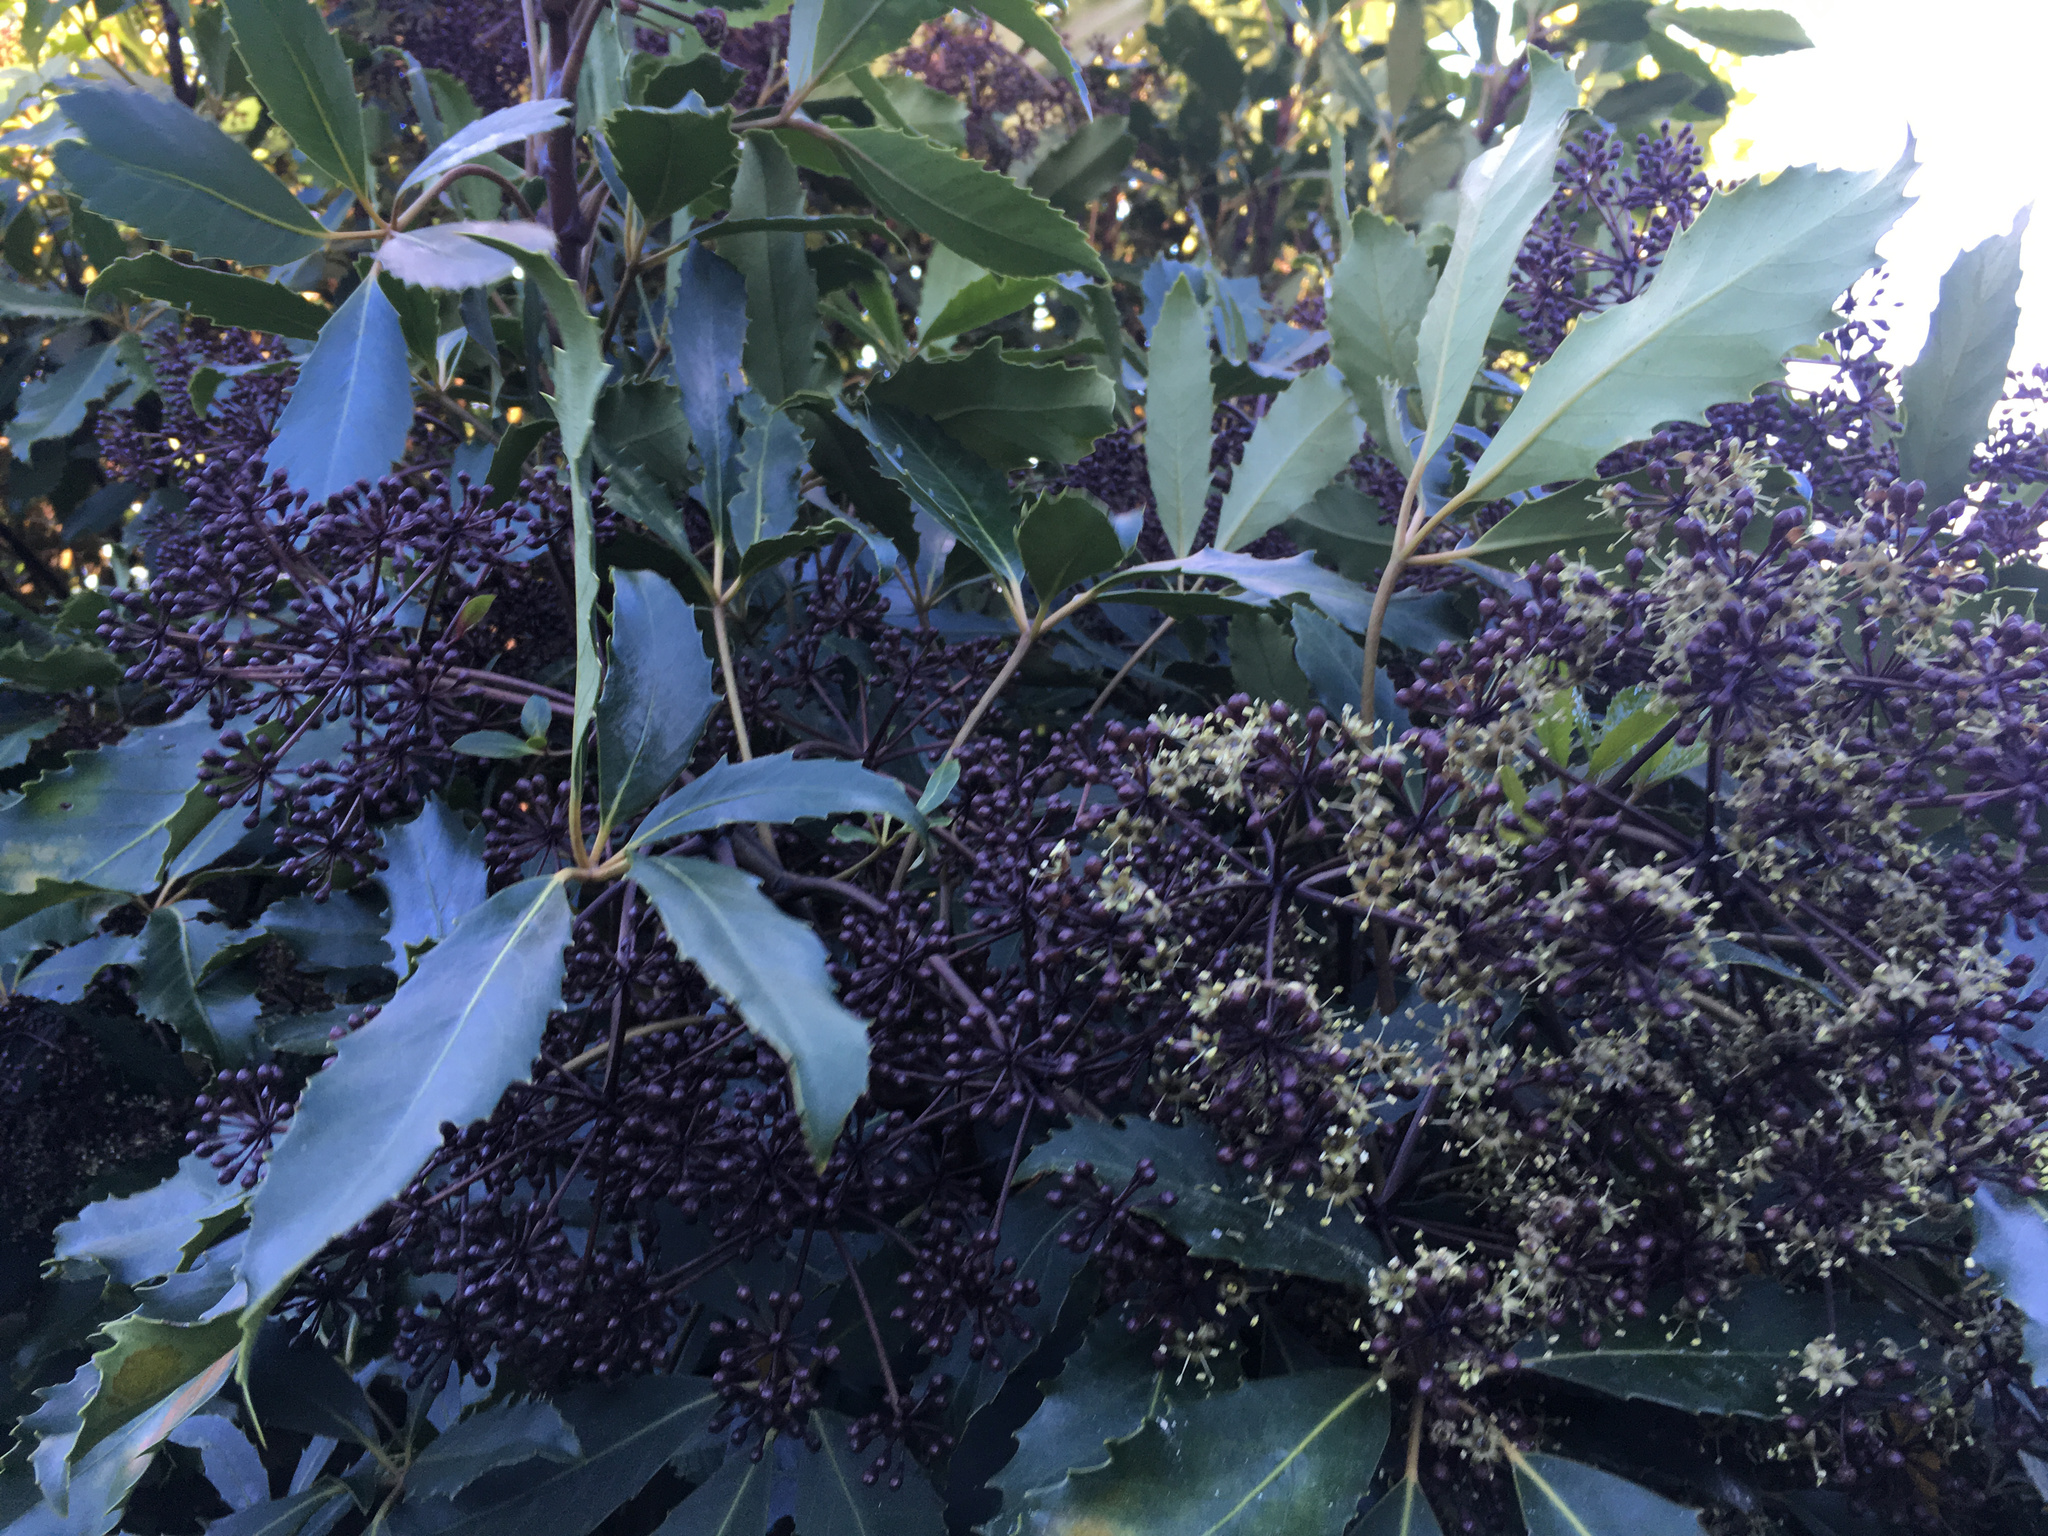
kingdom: Plantae
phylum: Tracheophyta
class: Magnoliopsida
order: Apiales
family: Araliaceae
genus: Neopanax
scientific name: Neopanax arboreus
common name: Five-fingers
